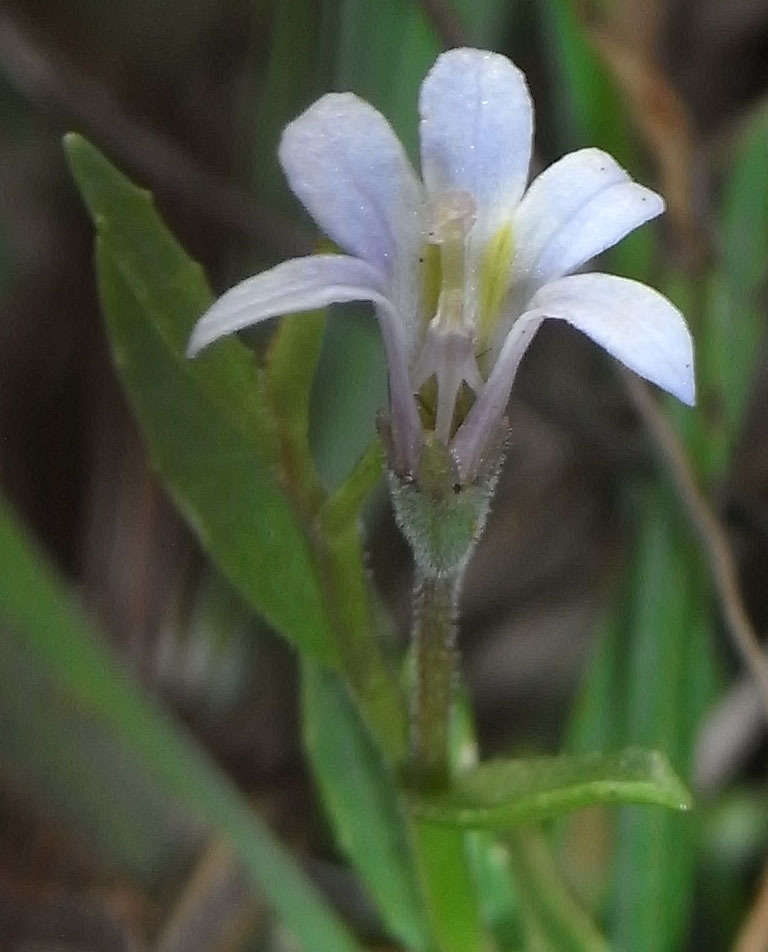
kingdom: Plantae
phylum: Tracheophyta
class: Magnoliopsida
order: Asterales
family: Campanulaceae
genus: Lobelia
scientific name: Lobelia pratioides
